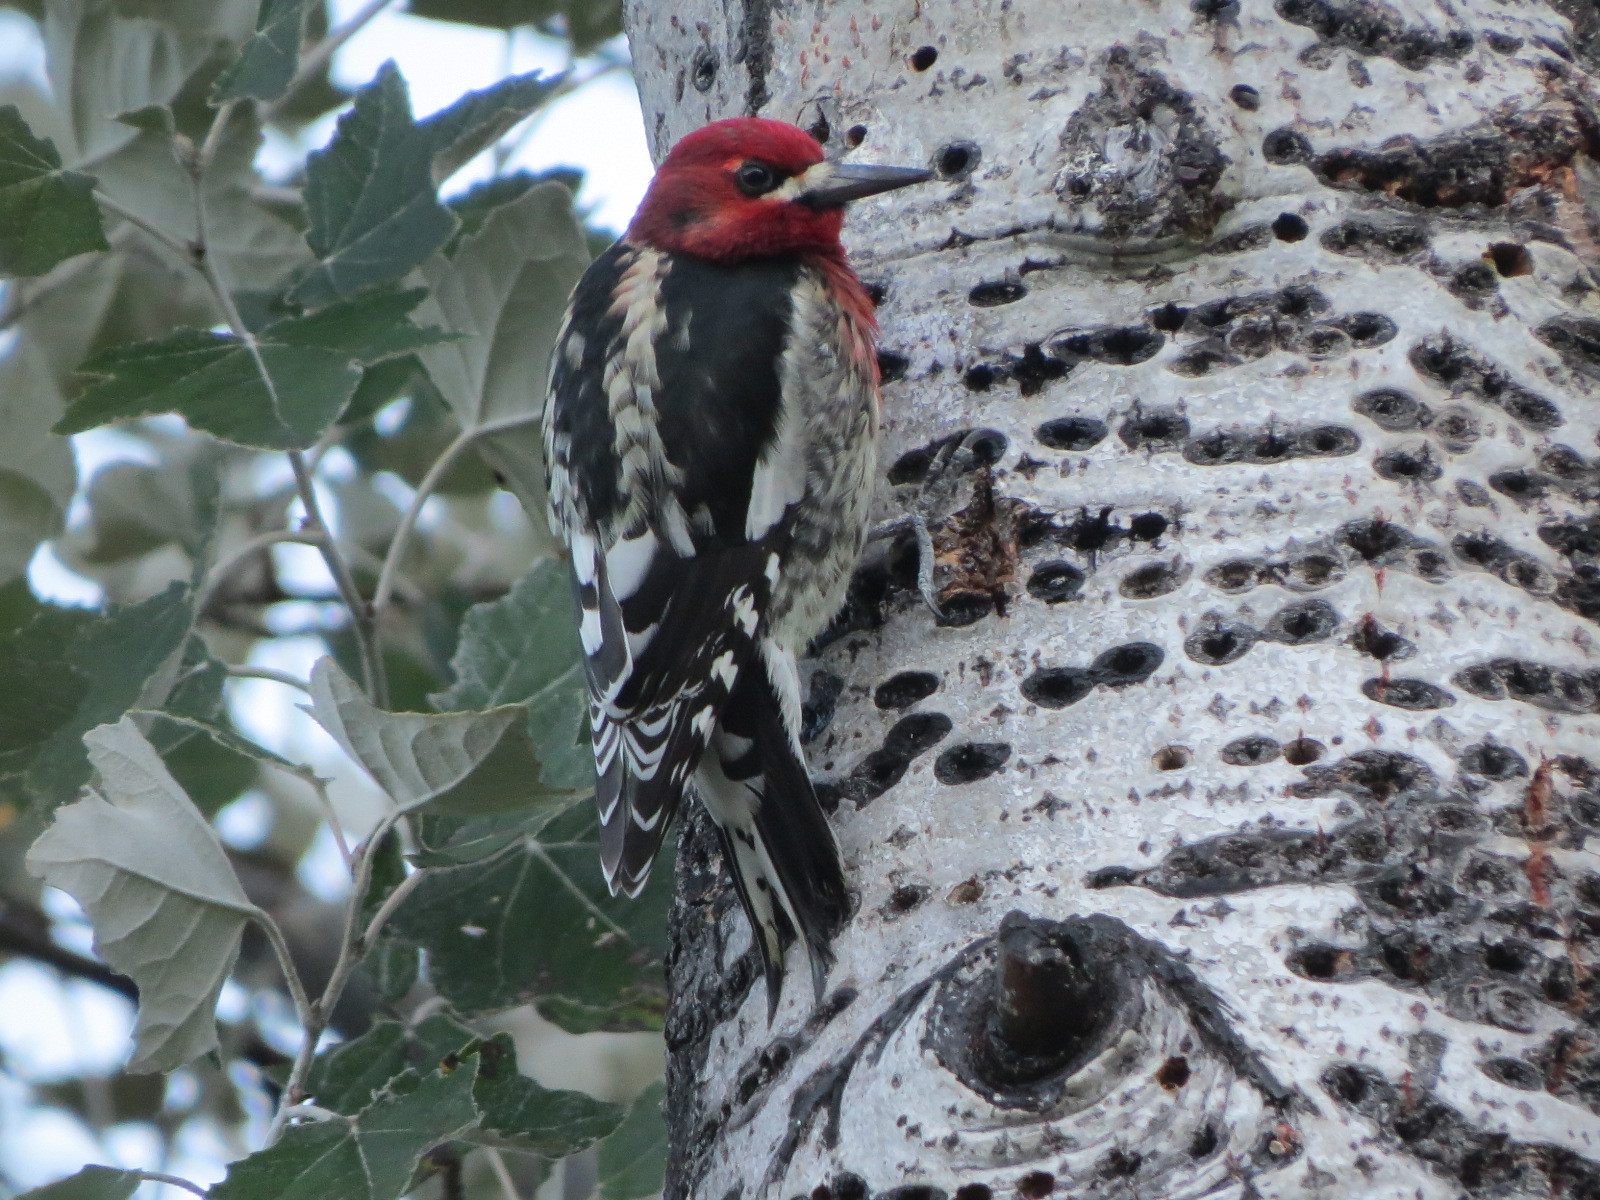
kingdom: Animalia
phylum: Chordata
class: Aves
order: Piciformes
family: Picidae
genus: Sphyrapicus
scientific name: Sphyrapicus ruber
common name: Red-breasted sapsucker
